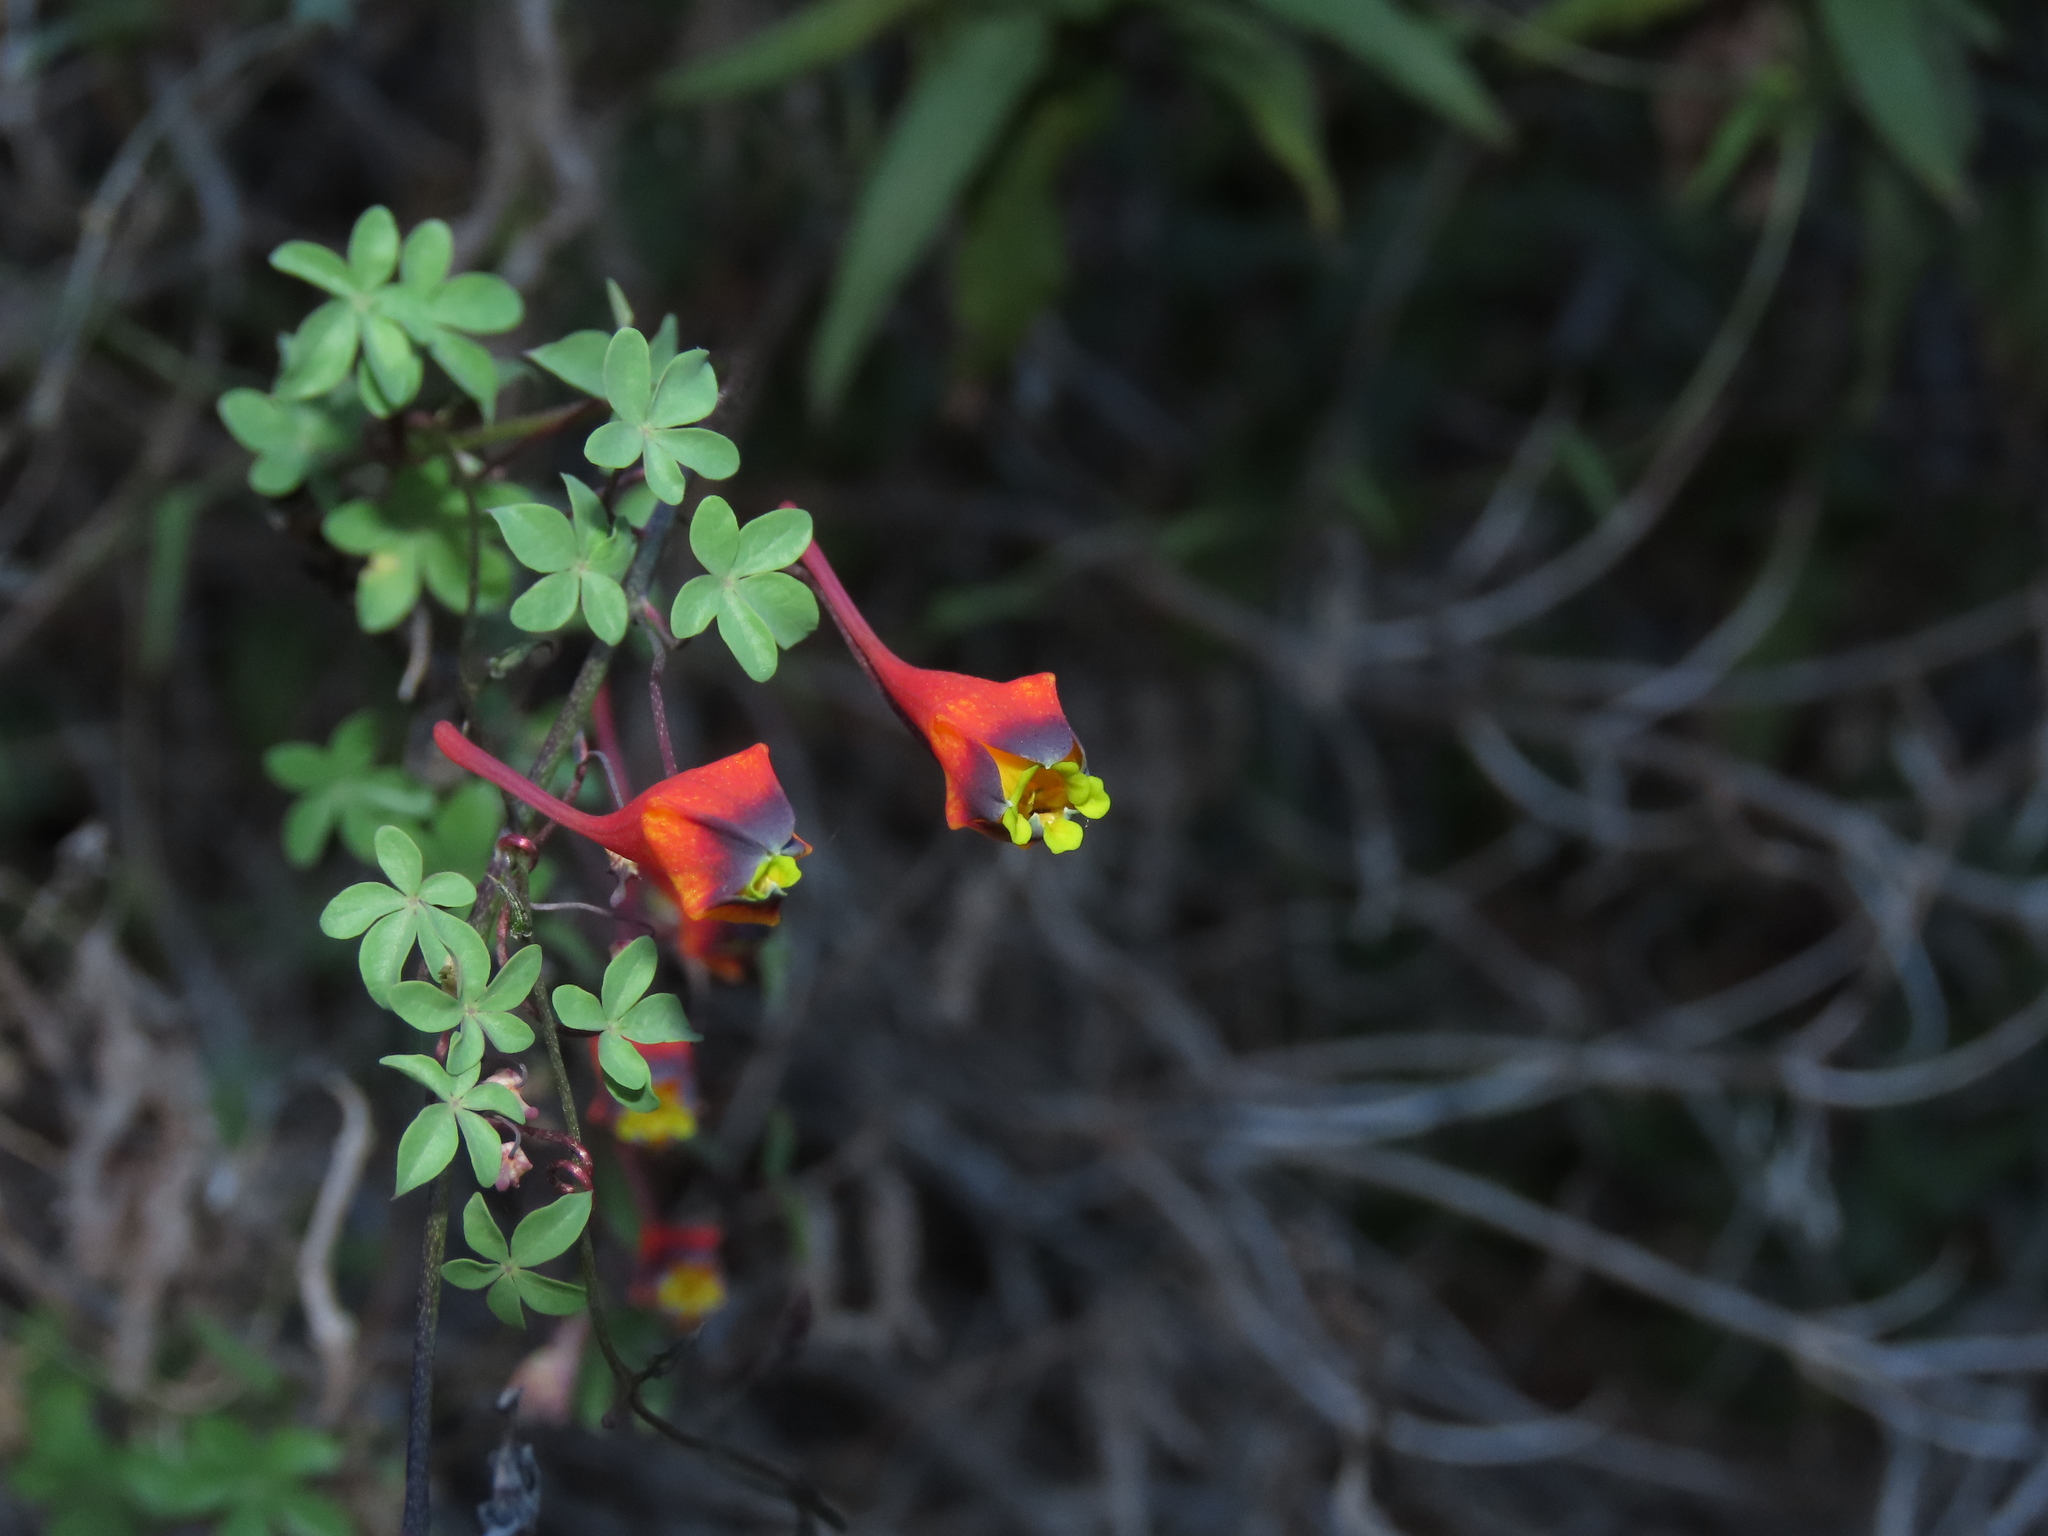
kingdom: Plantae
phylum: Tracheophyta
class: Magnoliopsida
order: Brassicales
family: Tropaeolaceae
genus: Tropaeolum
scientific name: Tropaeolum tricolor
